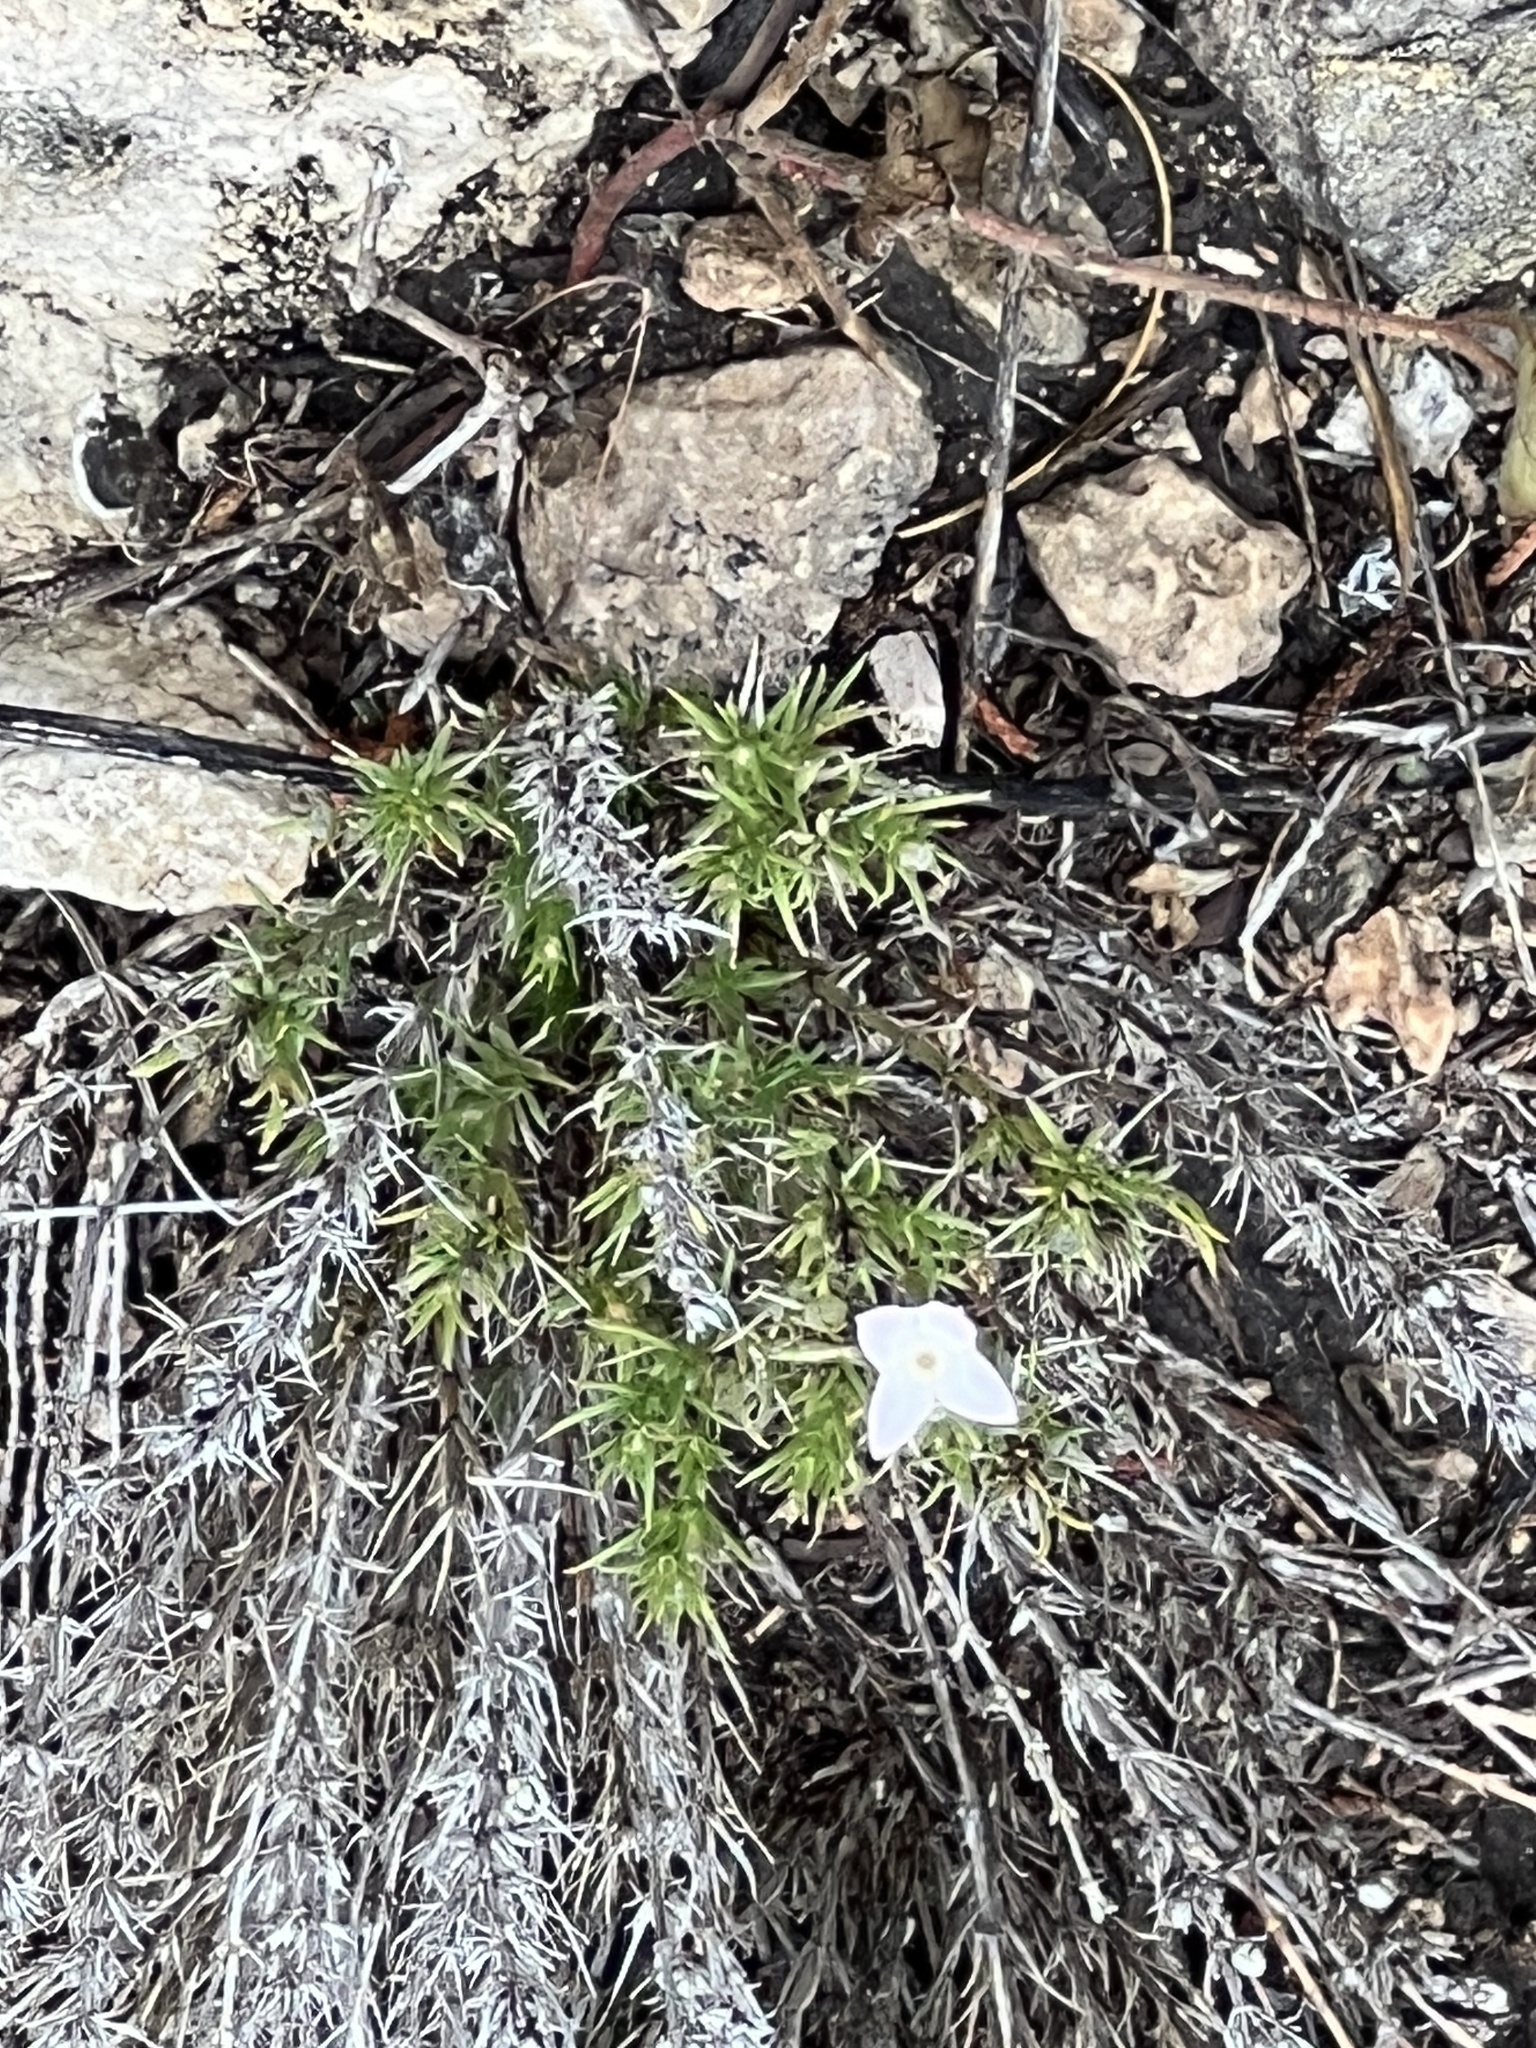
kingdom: Plantae
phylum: Tracheophyta
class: Magnoliopsida
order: Gentianales
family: Rubiaceae
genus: Houstonia
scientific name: Houstonia acerosa
